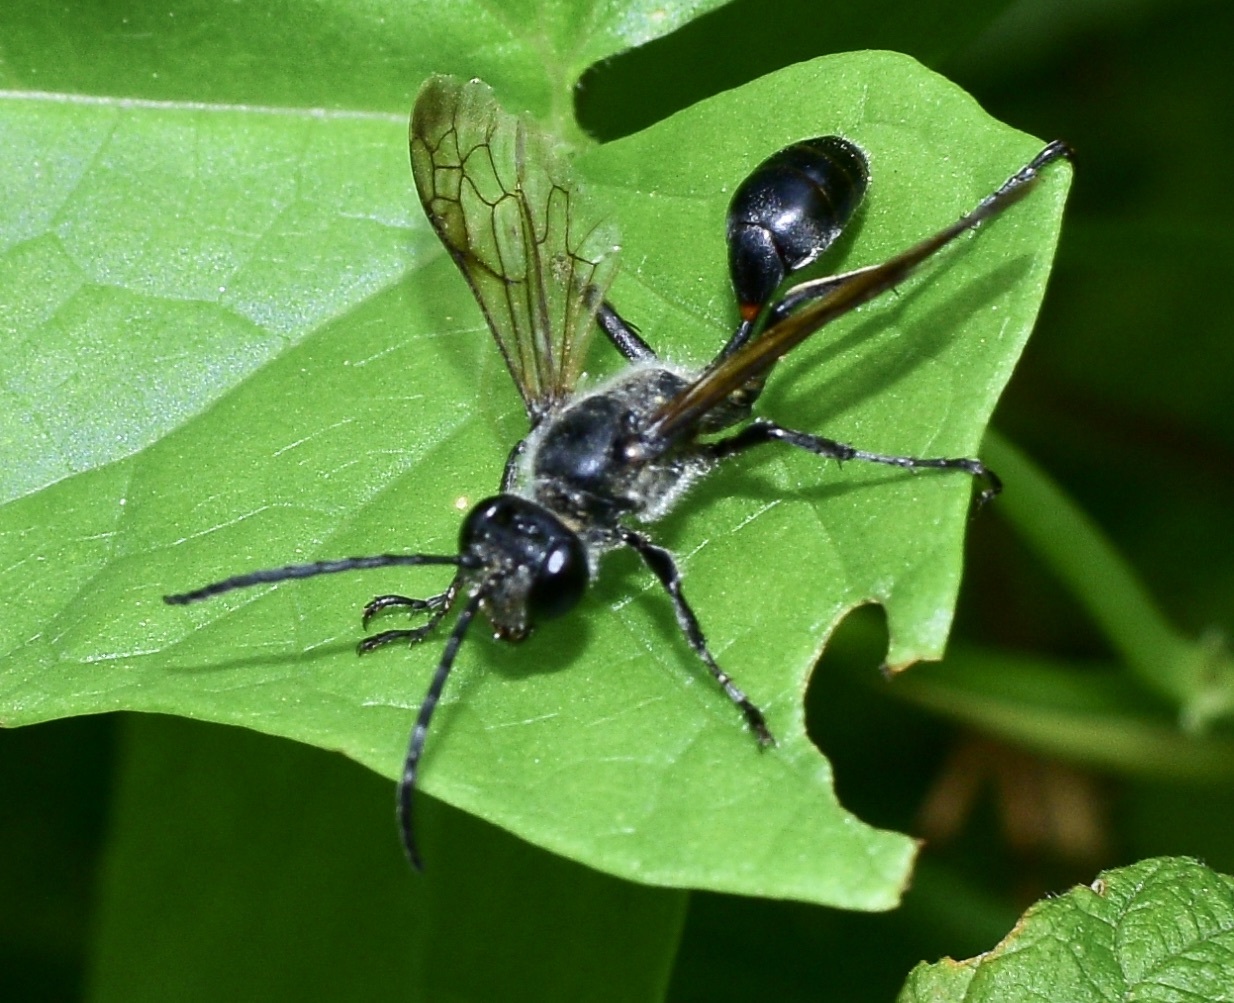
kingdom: Animalia
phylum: Arthropoda
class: Insecta
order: Hymenoptera
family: Sphecidae
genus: Isodontia
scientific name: Isodontia mexicana
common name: Mud dauber
